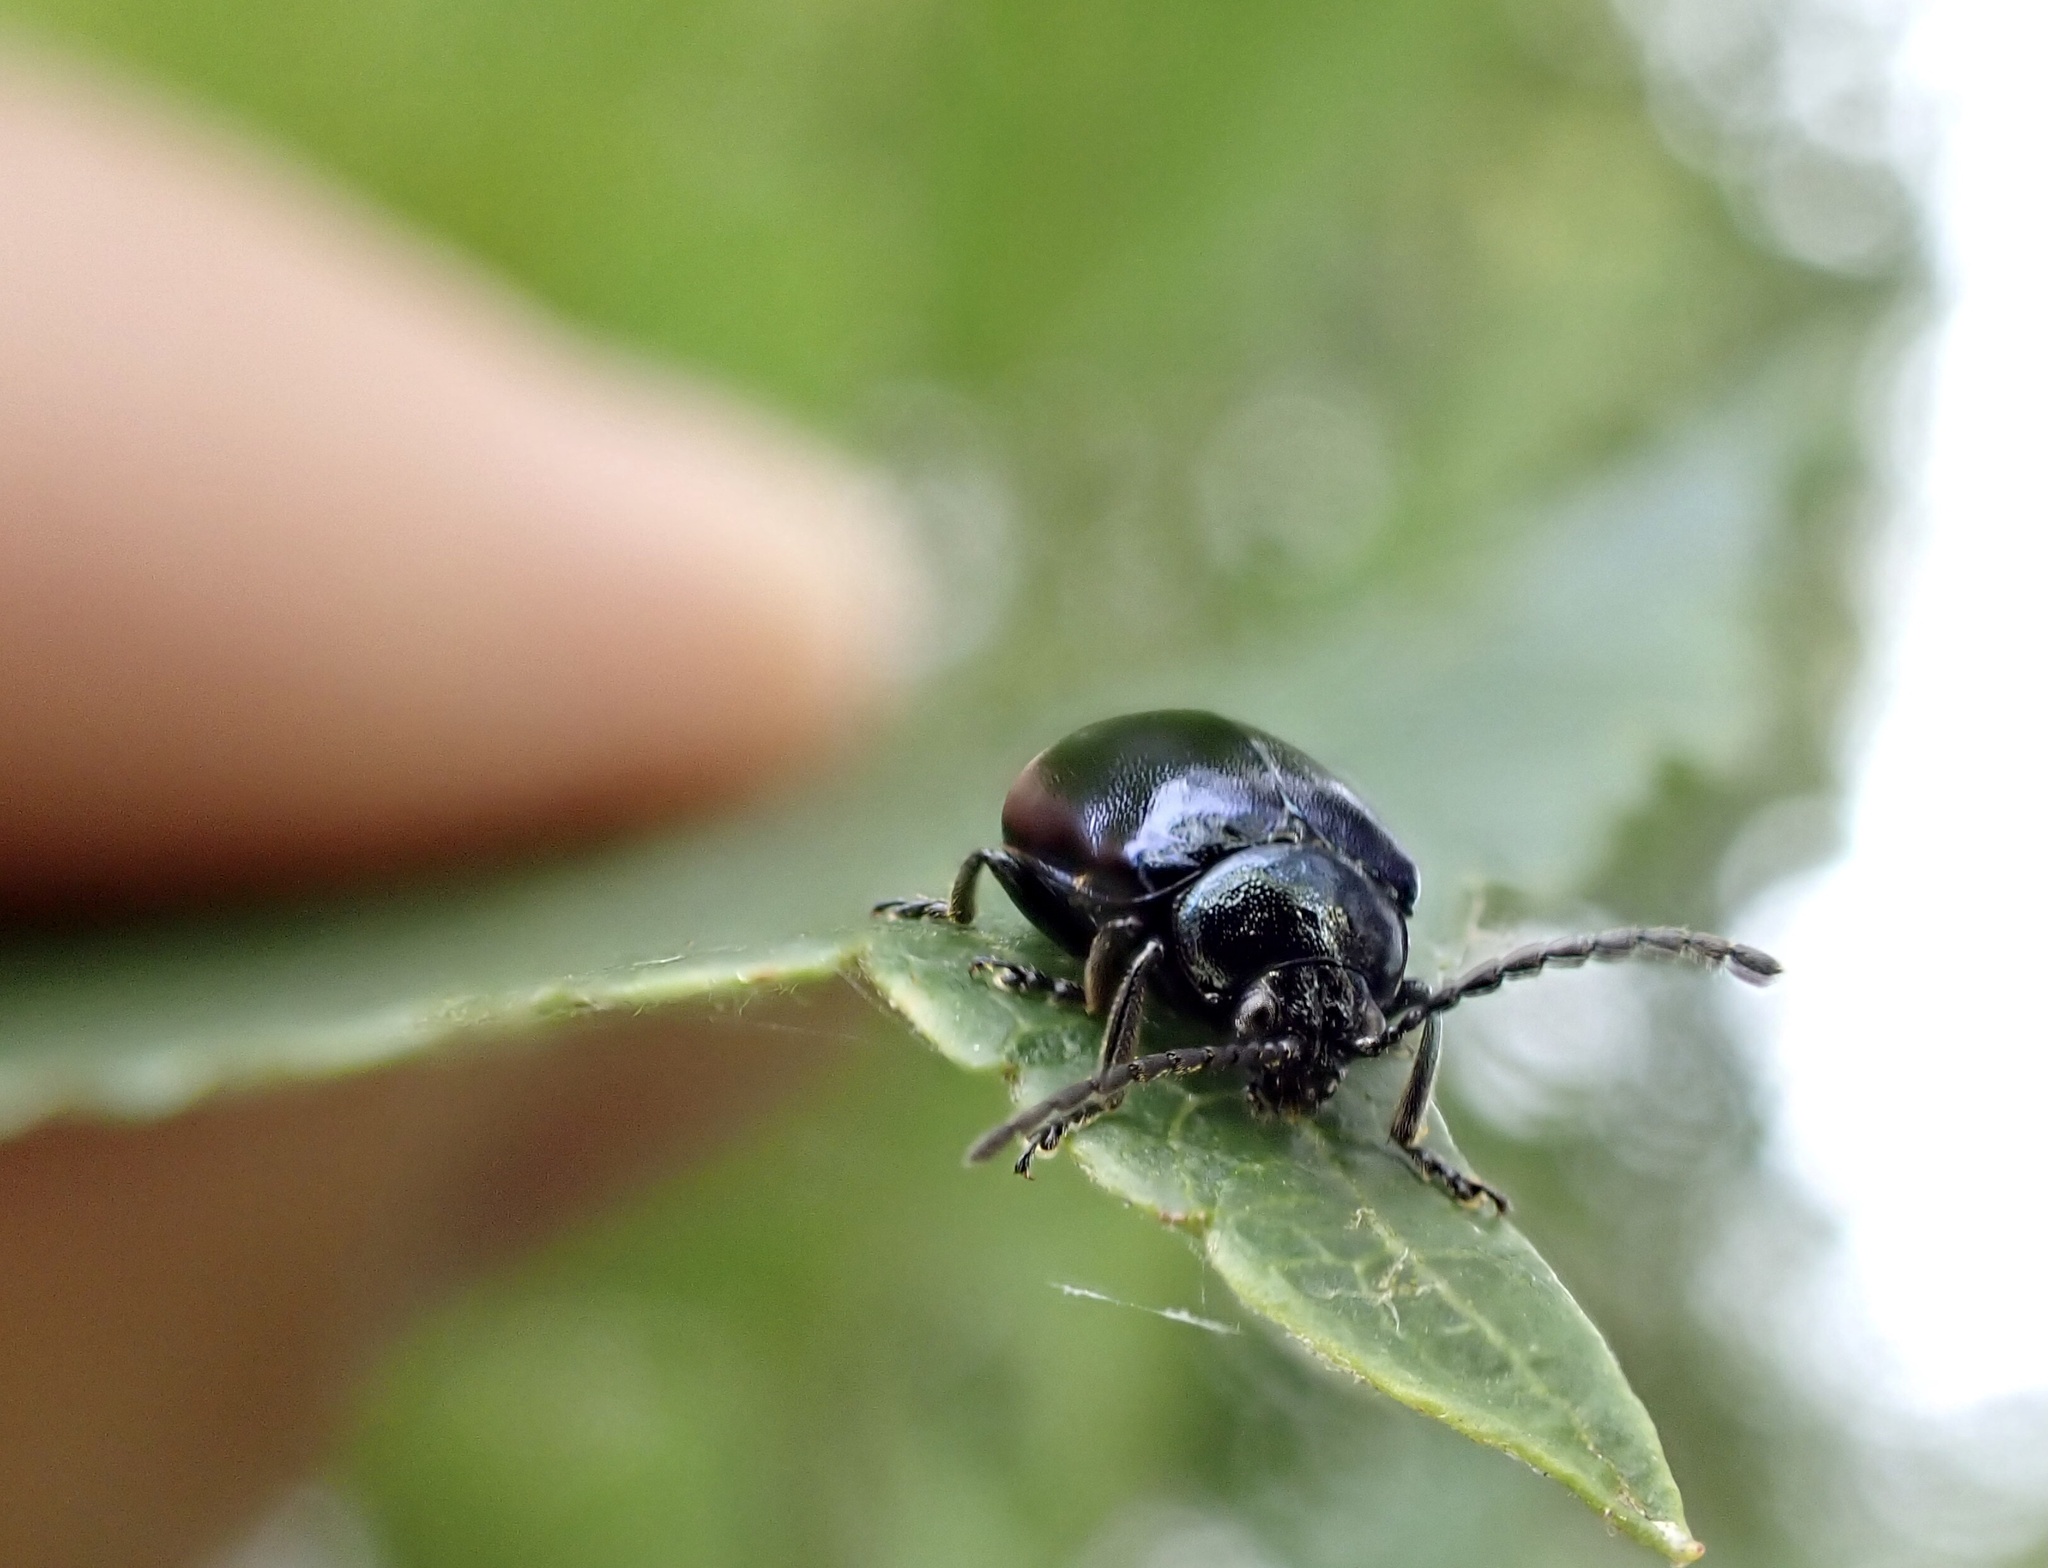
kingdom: Animalia
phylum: Arthropoda
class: Insecta
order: Coleoptera
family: Chrysomelidae
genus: Agelastica
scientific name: Agelastica alni
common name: Alder leaf beetle
